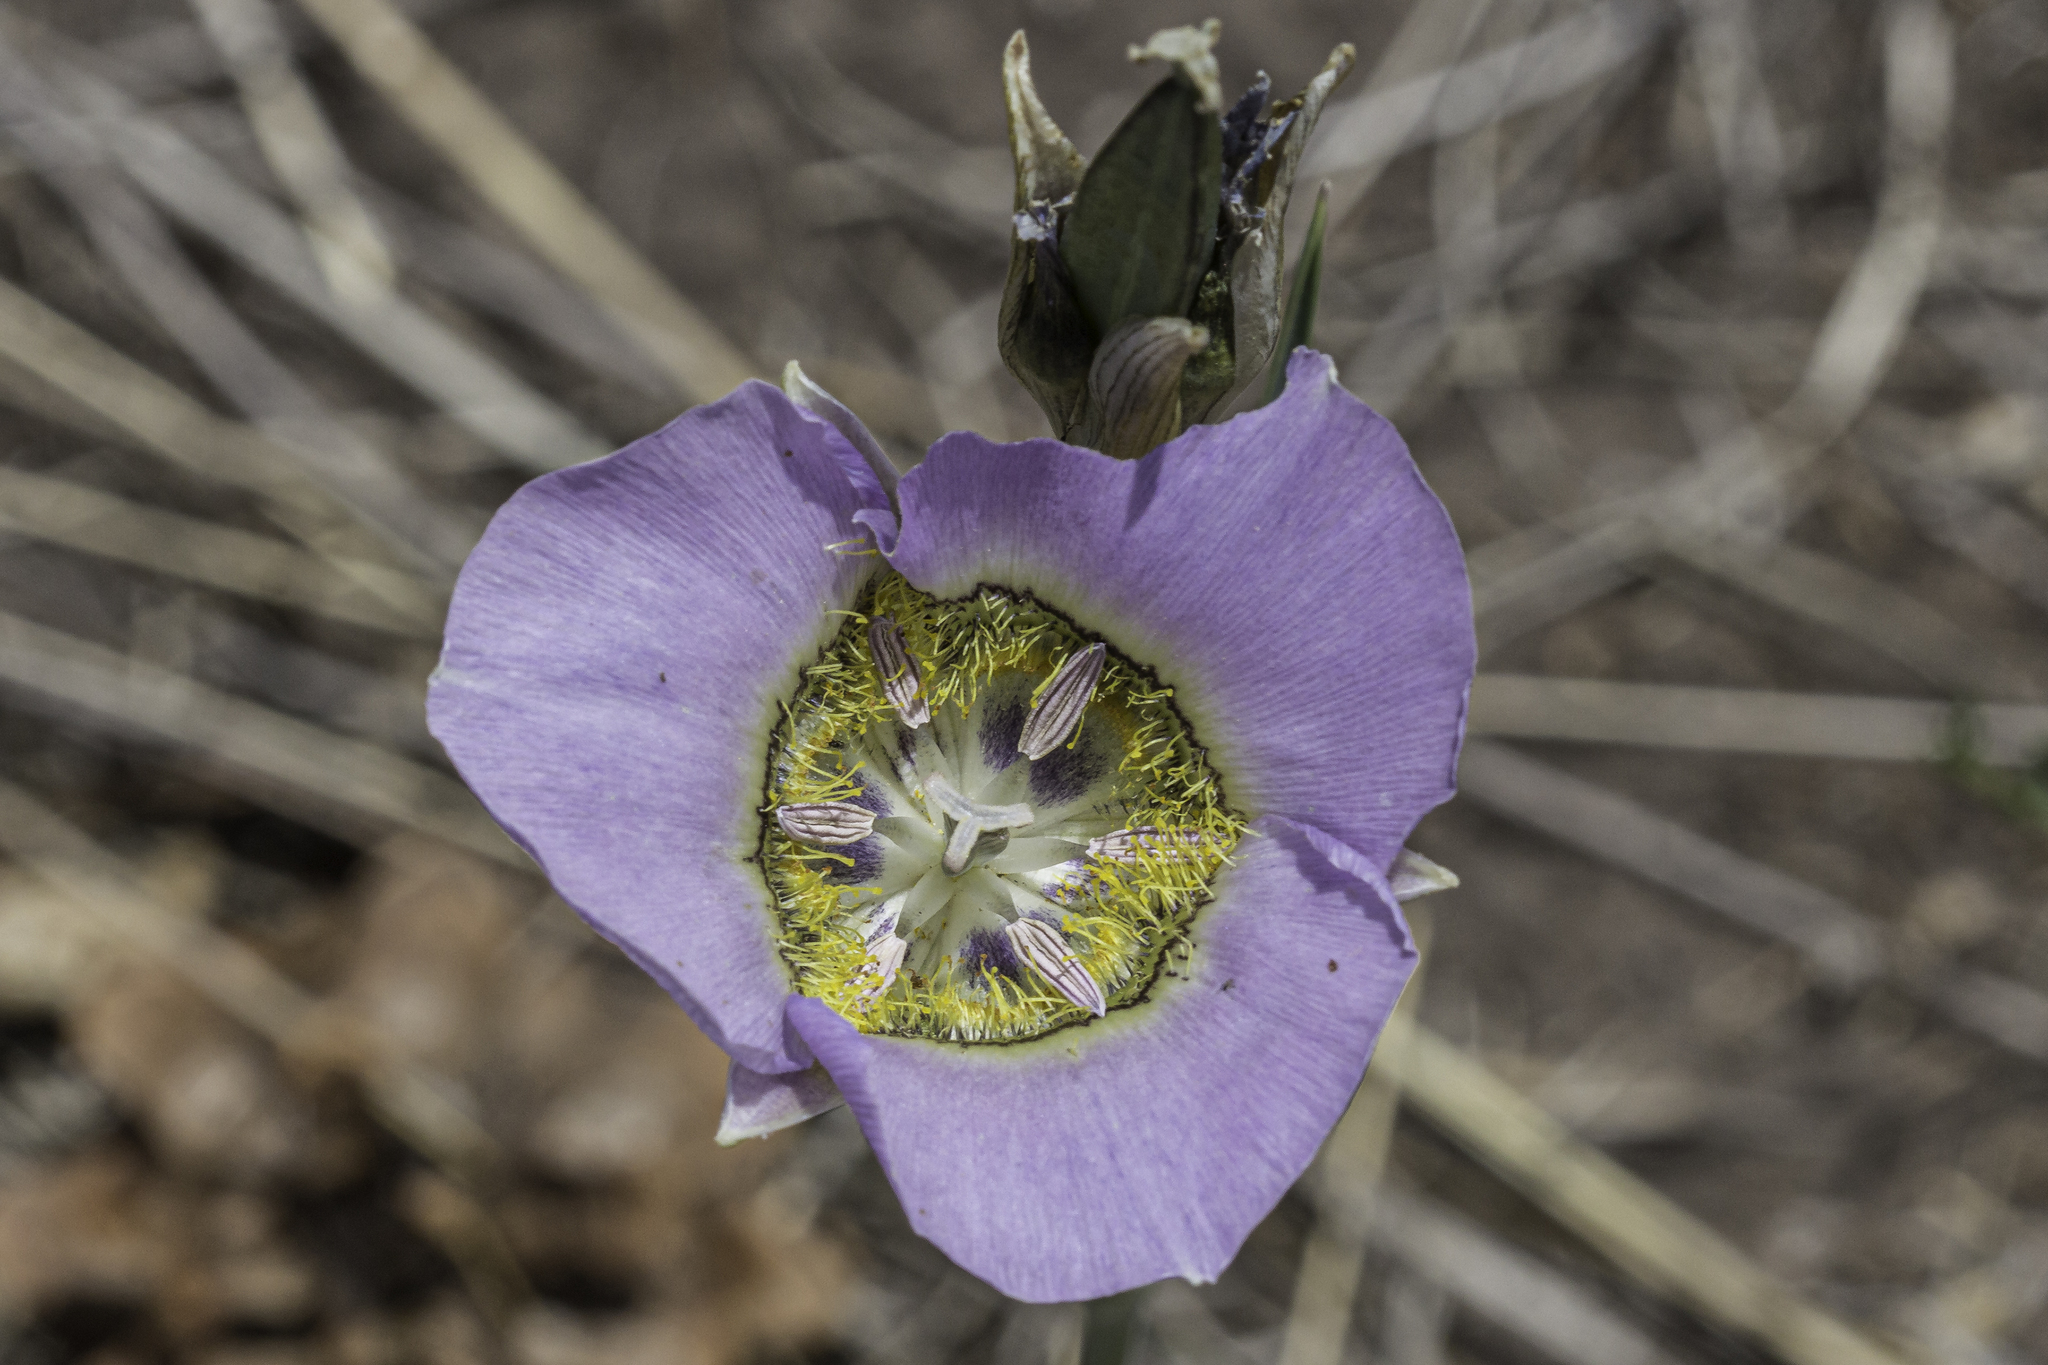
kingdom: Plantae
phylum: Tracheophyta
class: Liliopsida
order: Liliales
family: Liliaceae
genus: Calochortus
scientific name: Calochortus gunnisonii
